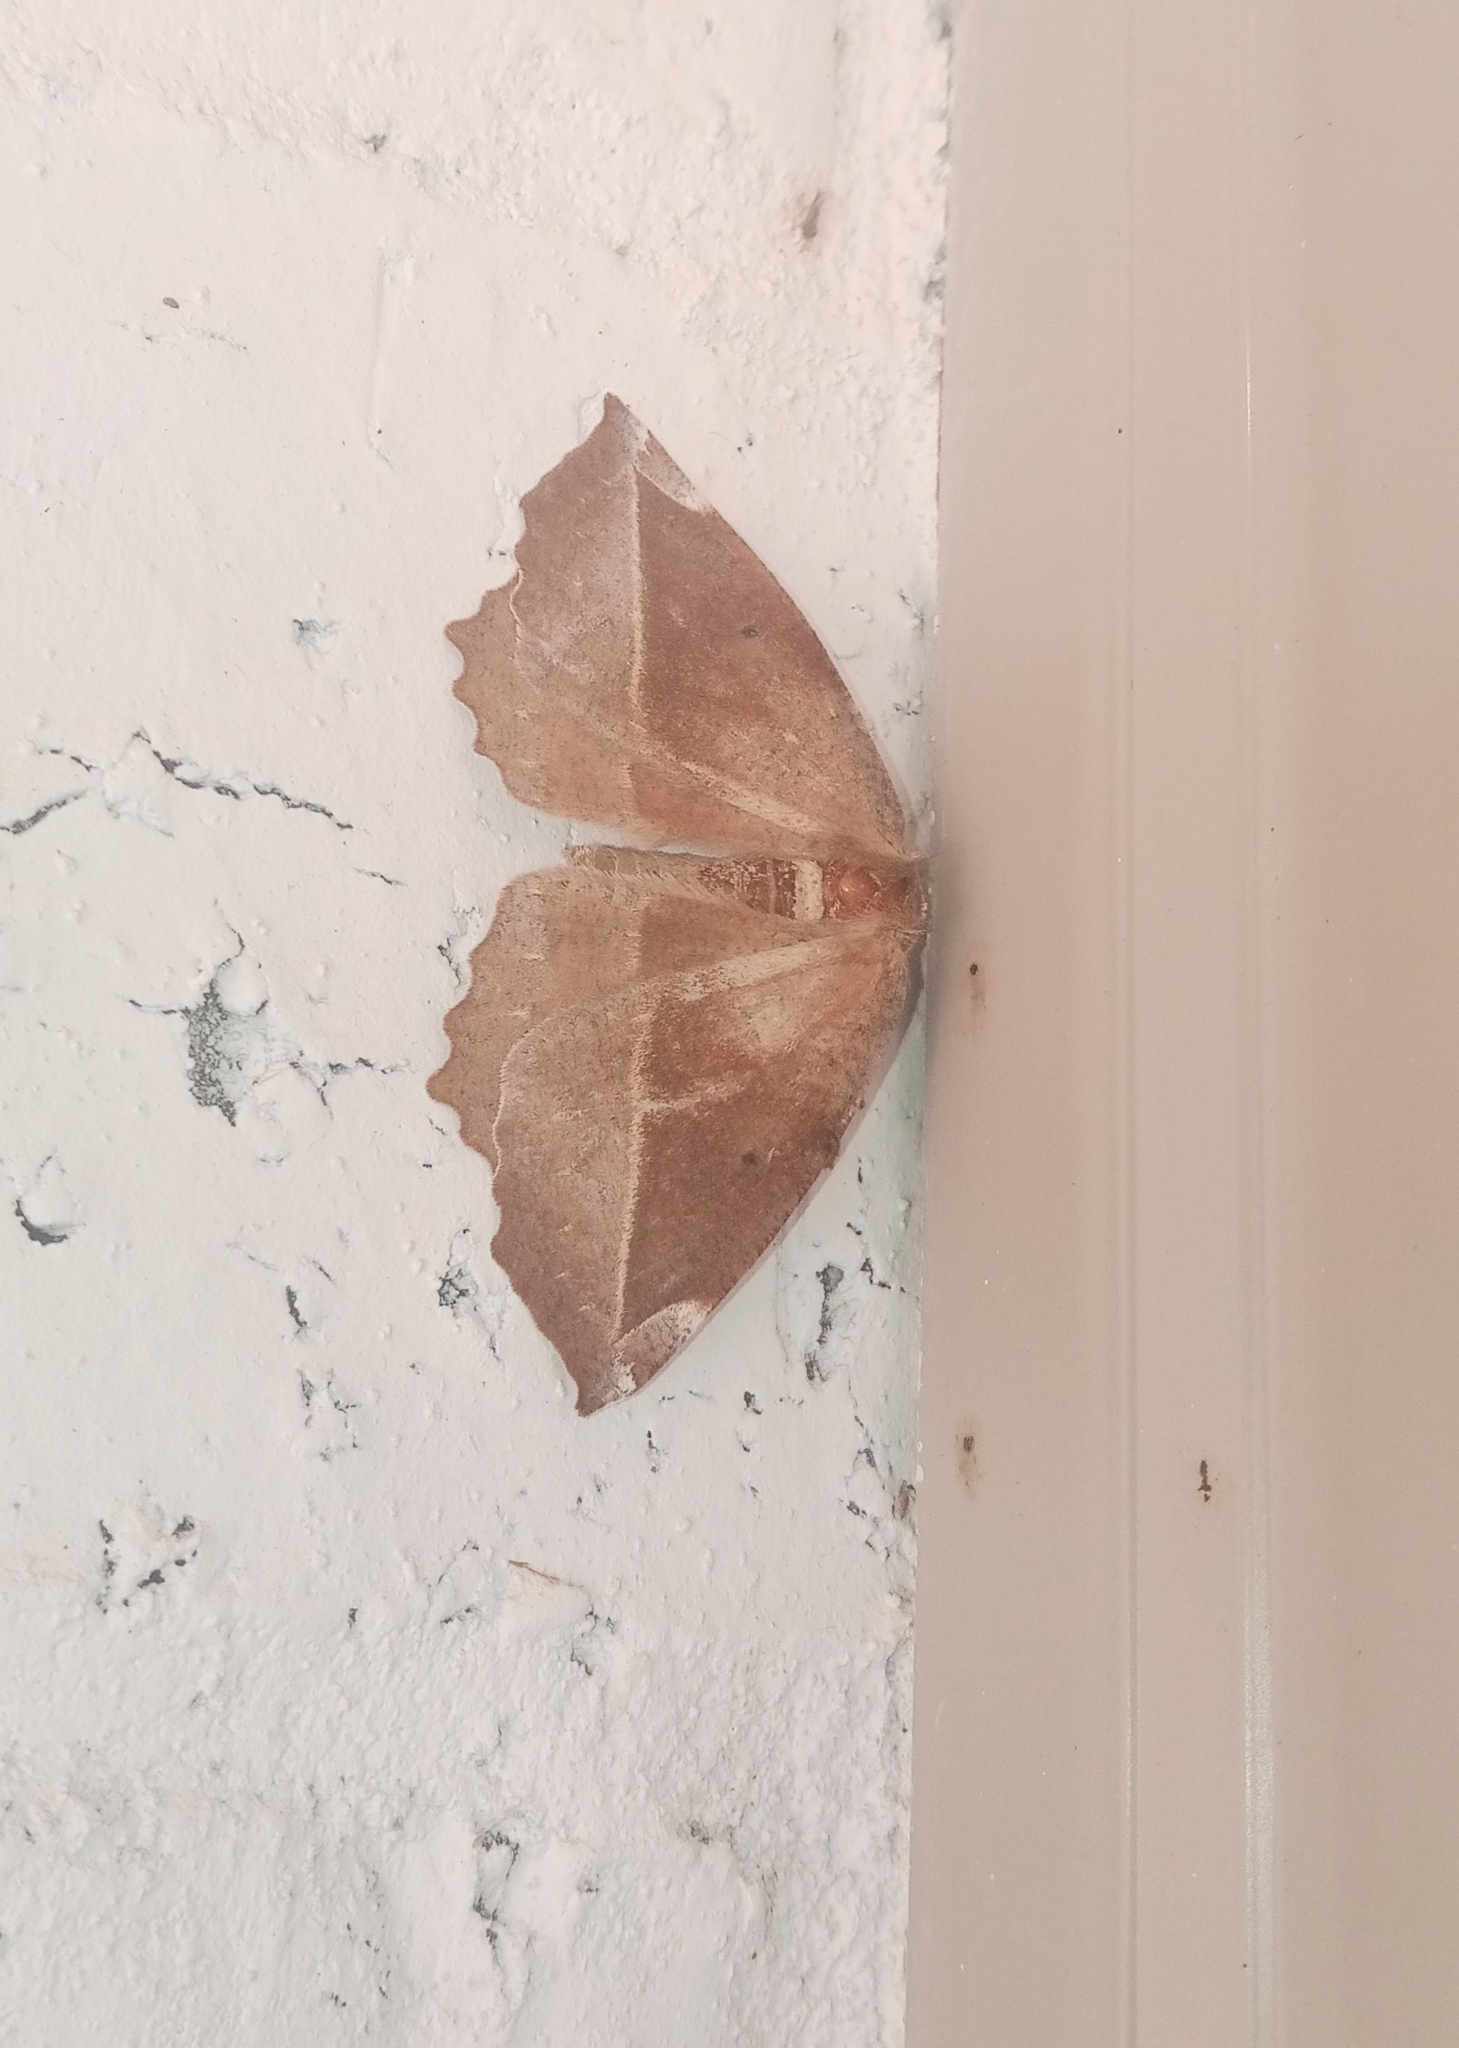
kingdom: Animalia
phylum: Arthropoda
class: Insecta
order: Lepidoptera
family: Geometridae
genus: Eutrapela
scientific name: Eutrapela clemataria
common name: Curved-toothed geometer
